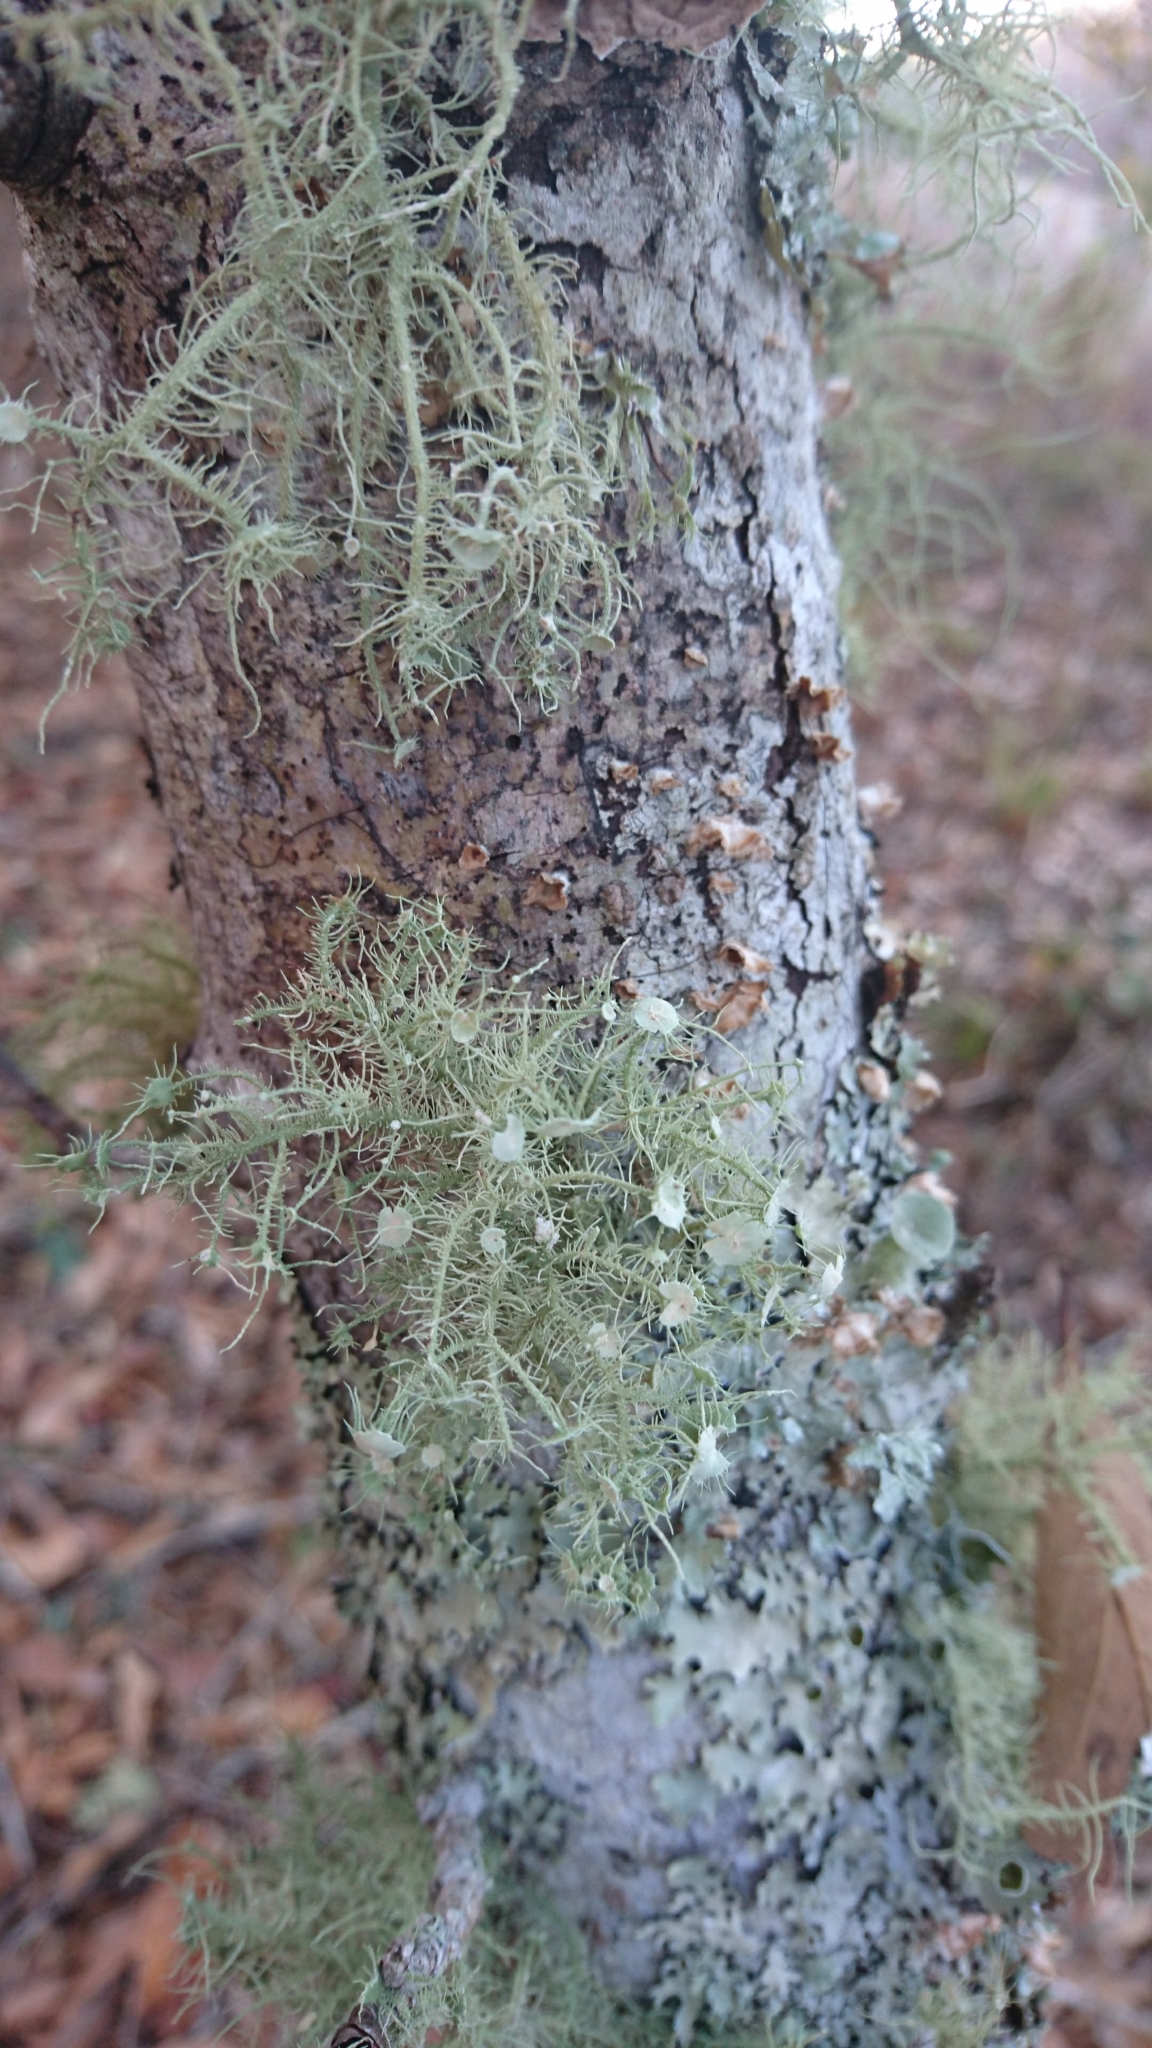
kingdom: Fungi
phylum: Ascomycota
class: Lecanoromycetes
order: Lecanorales
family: Parmeliaceae
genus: Usnea
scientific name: Usnea strigosa
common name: Bushy beard lichen
